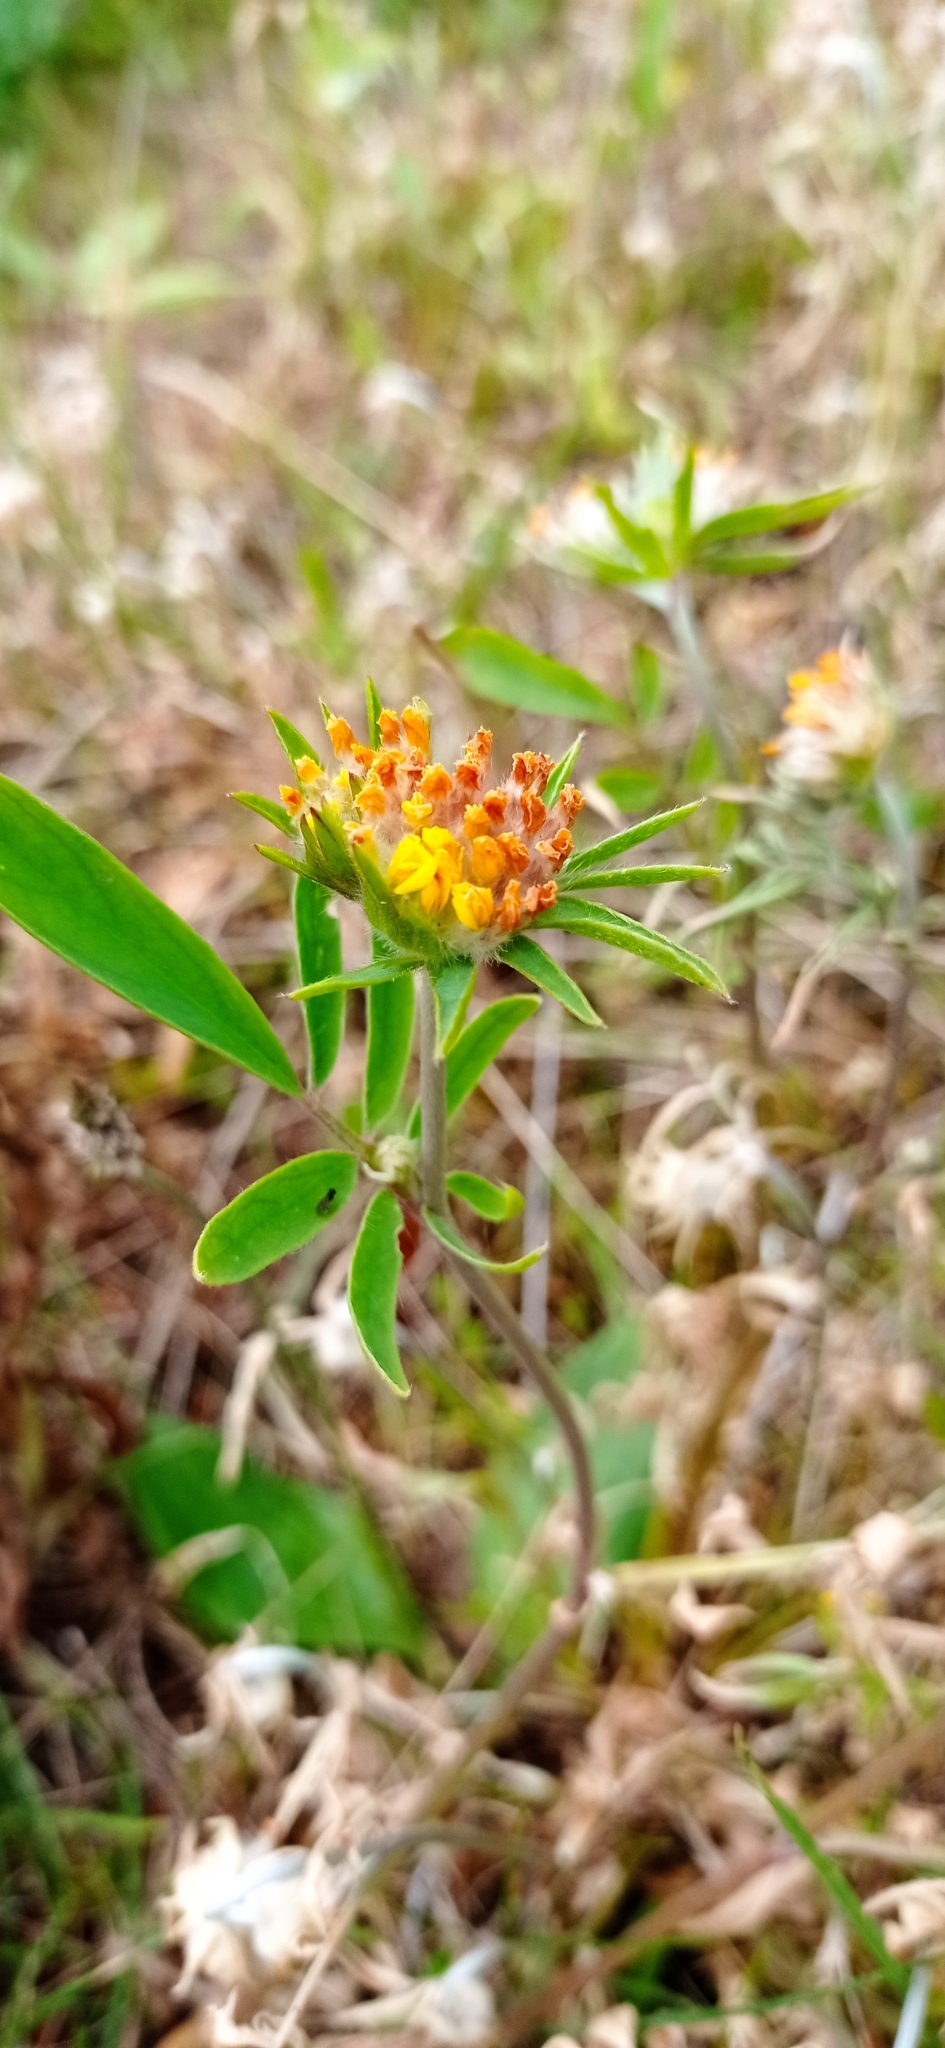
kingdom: Plantae
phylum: Tracheophyta
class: Magnoliopsida
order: Fabales
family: Fabaceae
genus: Anthyllis
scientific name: Anthyllis vulneraria
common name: Kidney vetch
